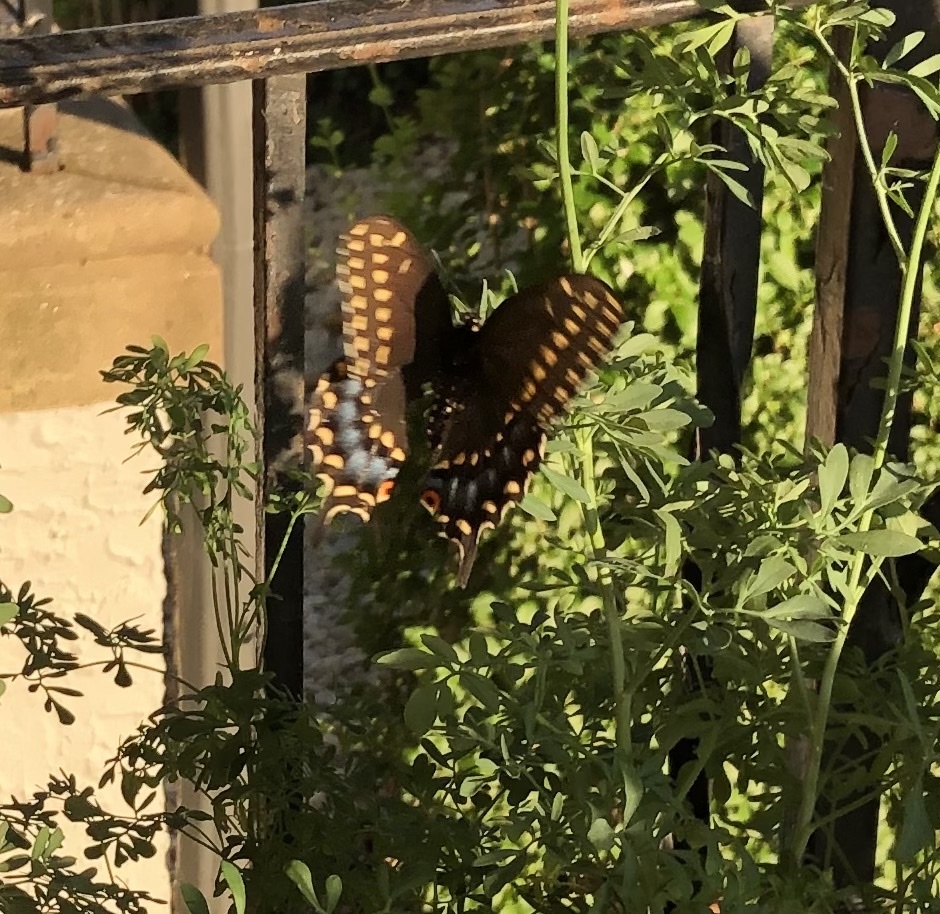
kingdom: Animalia
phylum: Arthropoda
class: Insecta
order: Lepidoptera
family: Papilionidae
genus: Papilio
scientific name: Papilio polyxenes
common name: Black swallowtail
